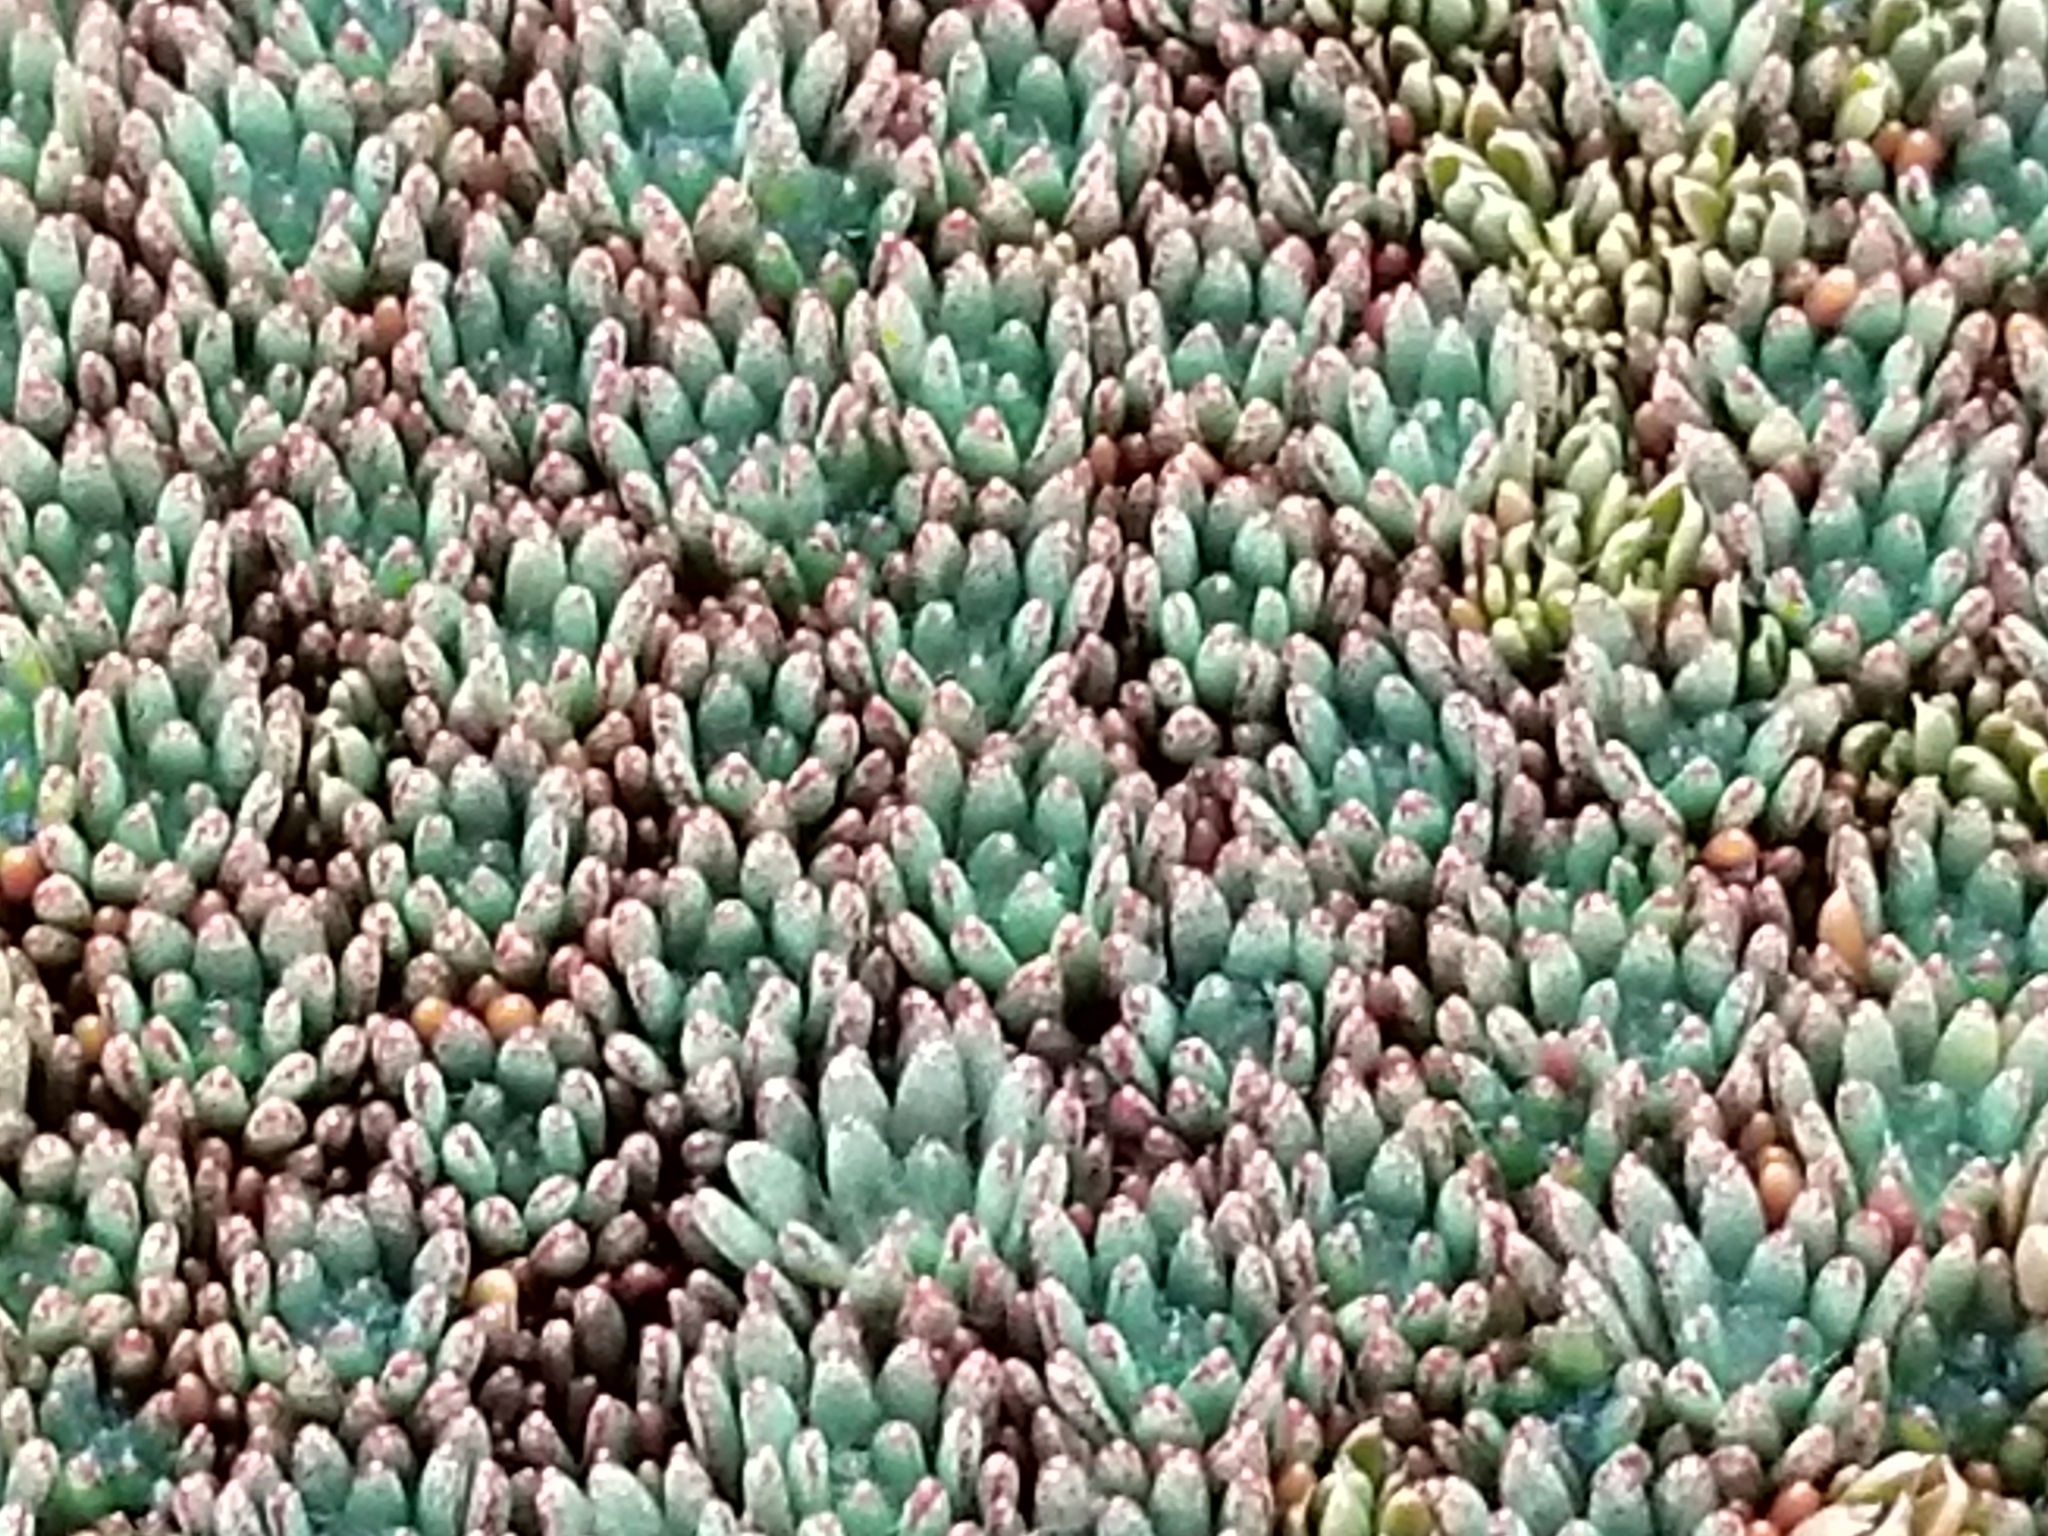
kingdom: Plantae
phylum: Tracheophyta
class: Magnoliopsida
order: Asterales
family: Stylidiaceae
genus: Donatia
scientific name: Donatia novae-zelandiae
